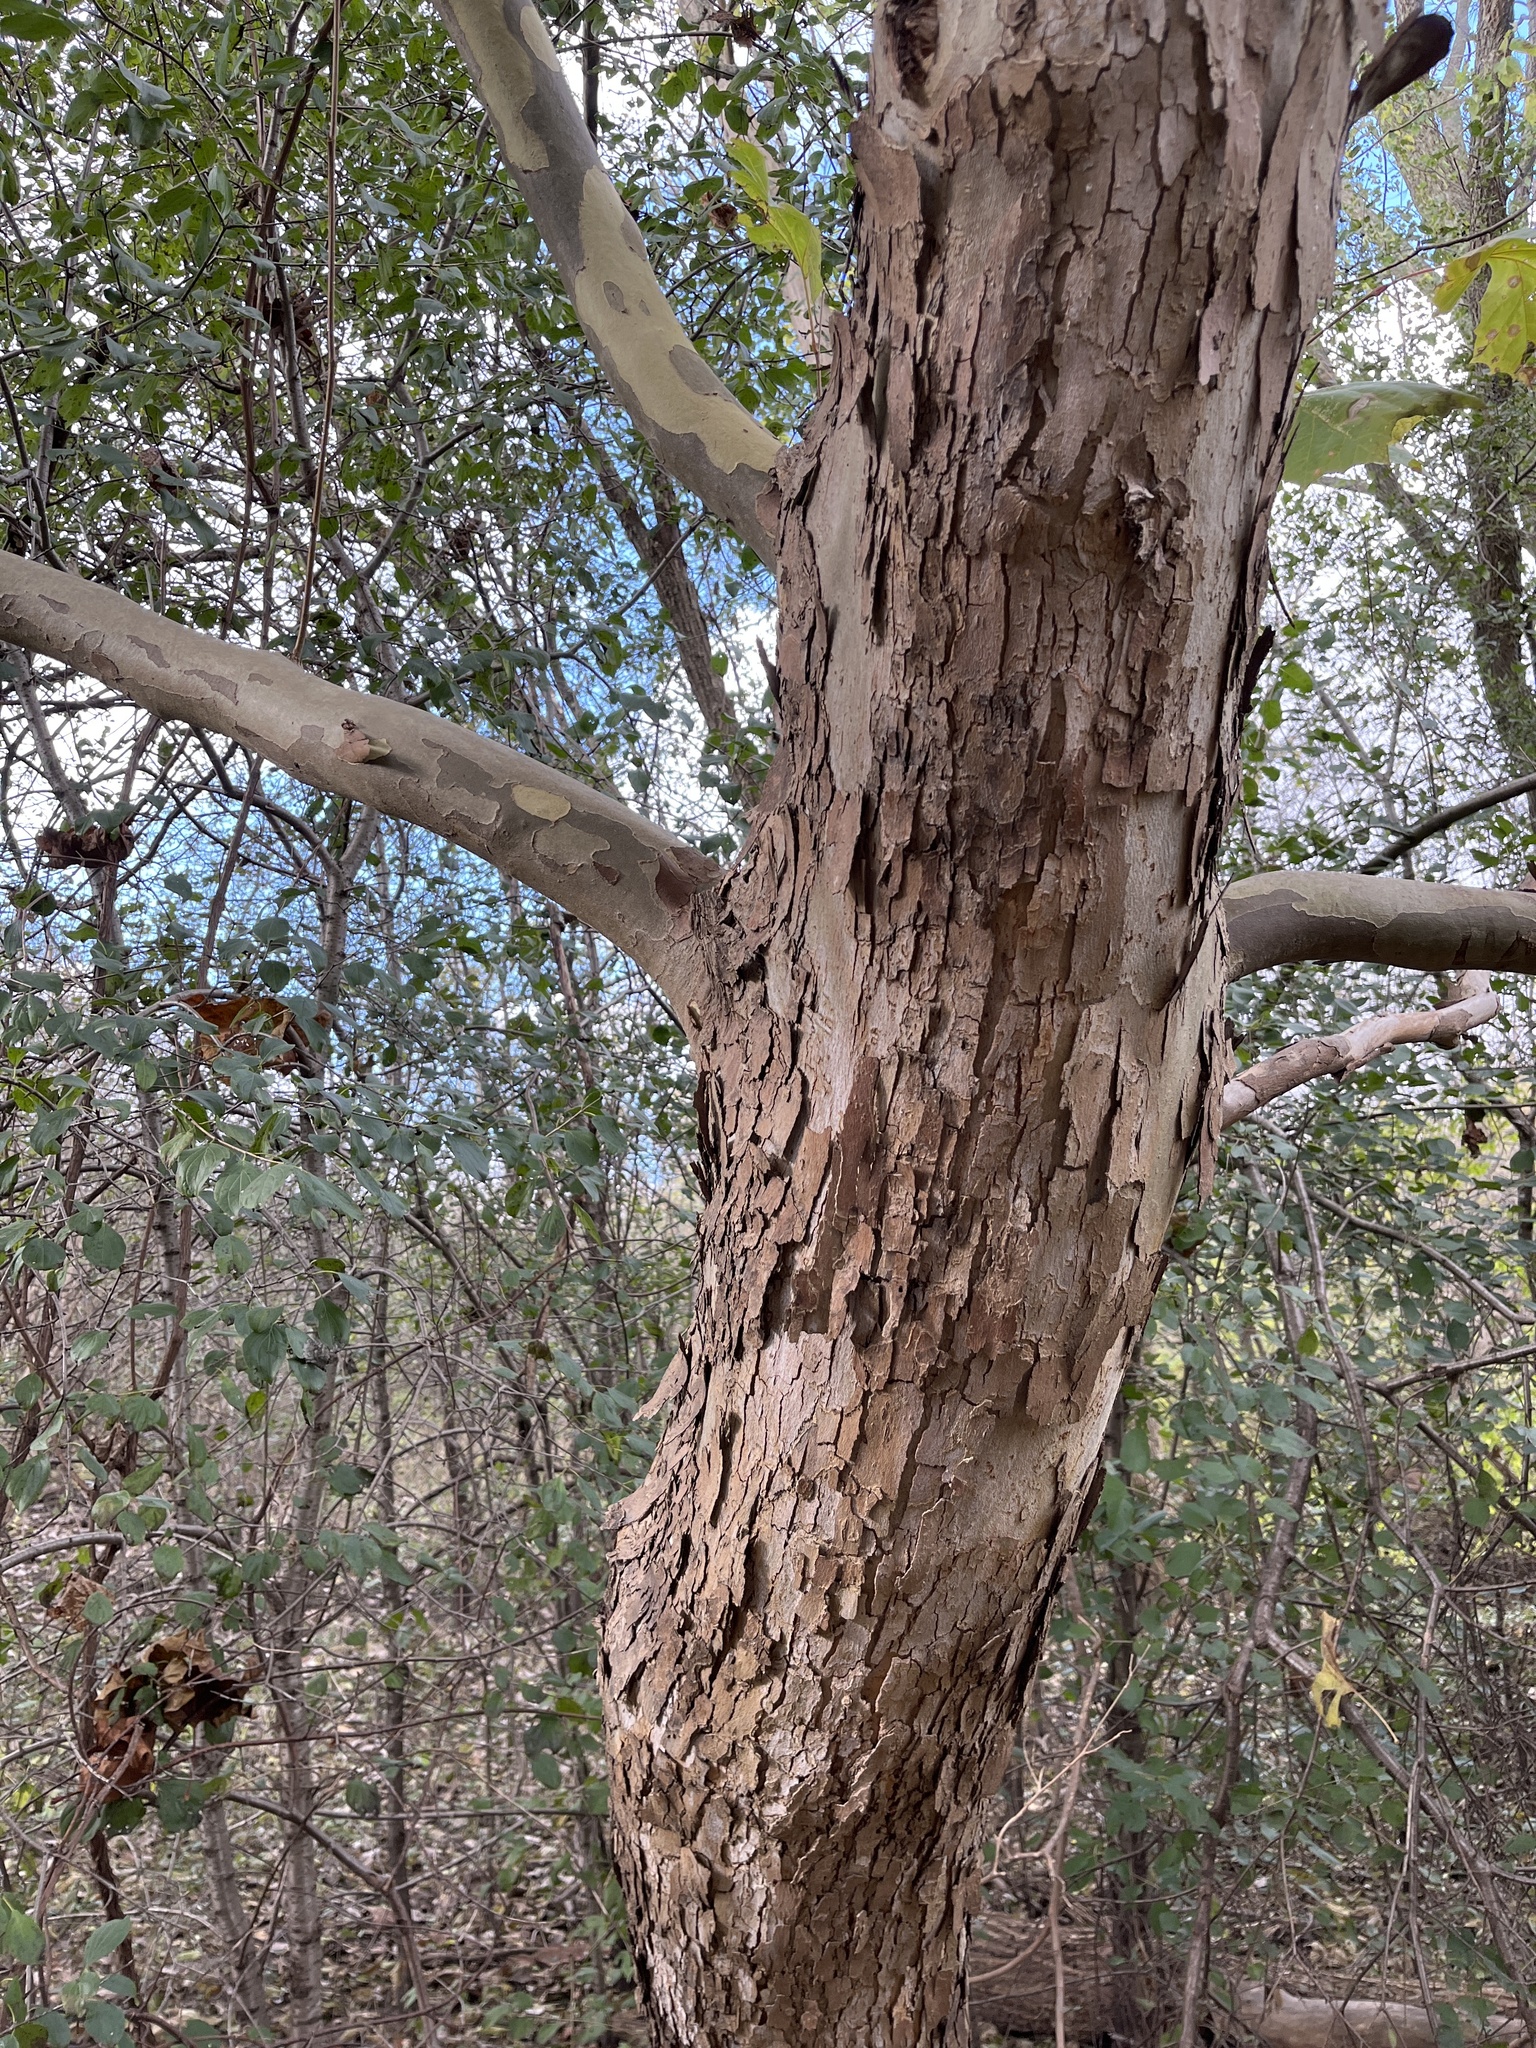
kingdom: Plantae
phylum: Tracheophyta
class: Magnoliopsida
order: Proteales
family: Platanaceae
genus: Platanus
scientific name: Platanus occidentalis
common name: American sycamore
